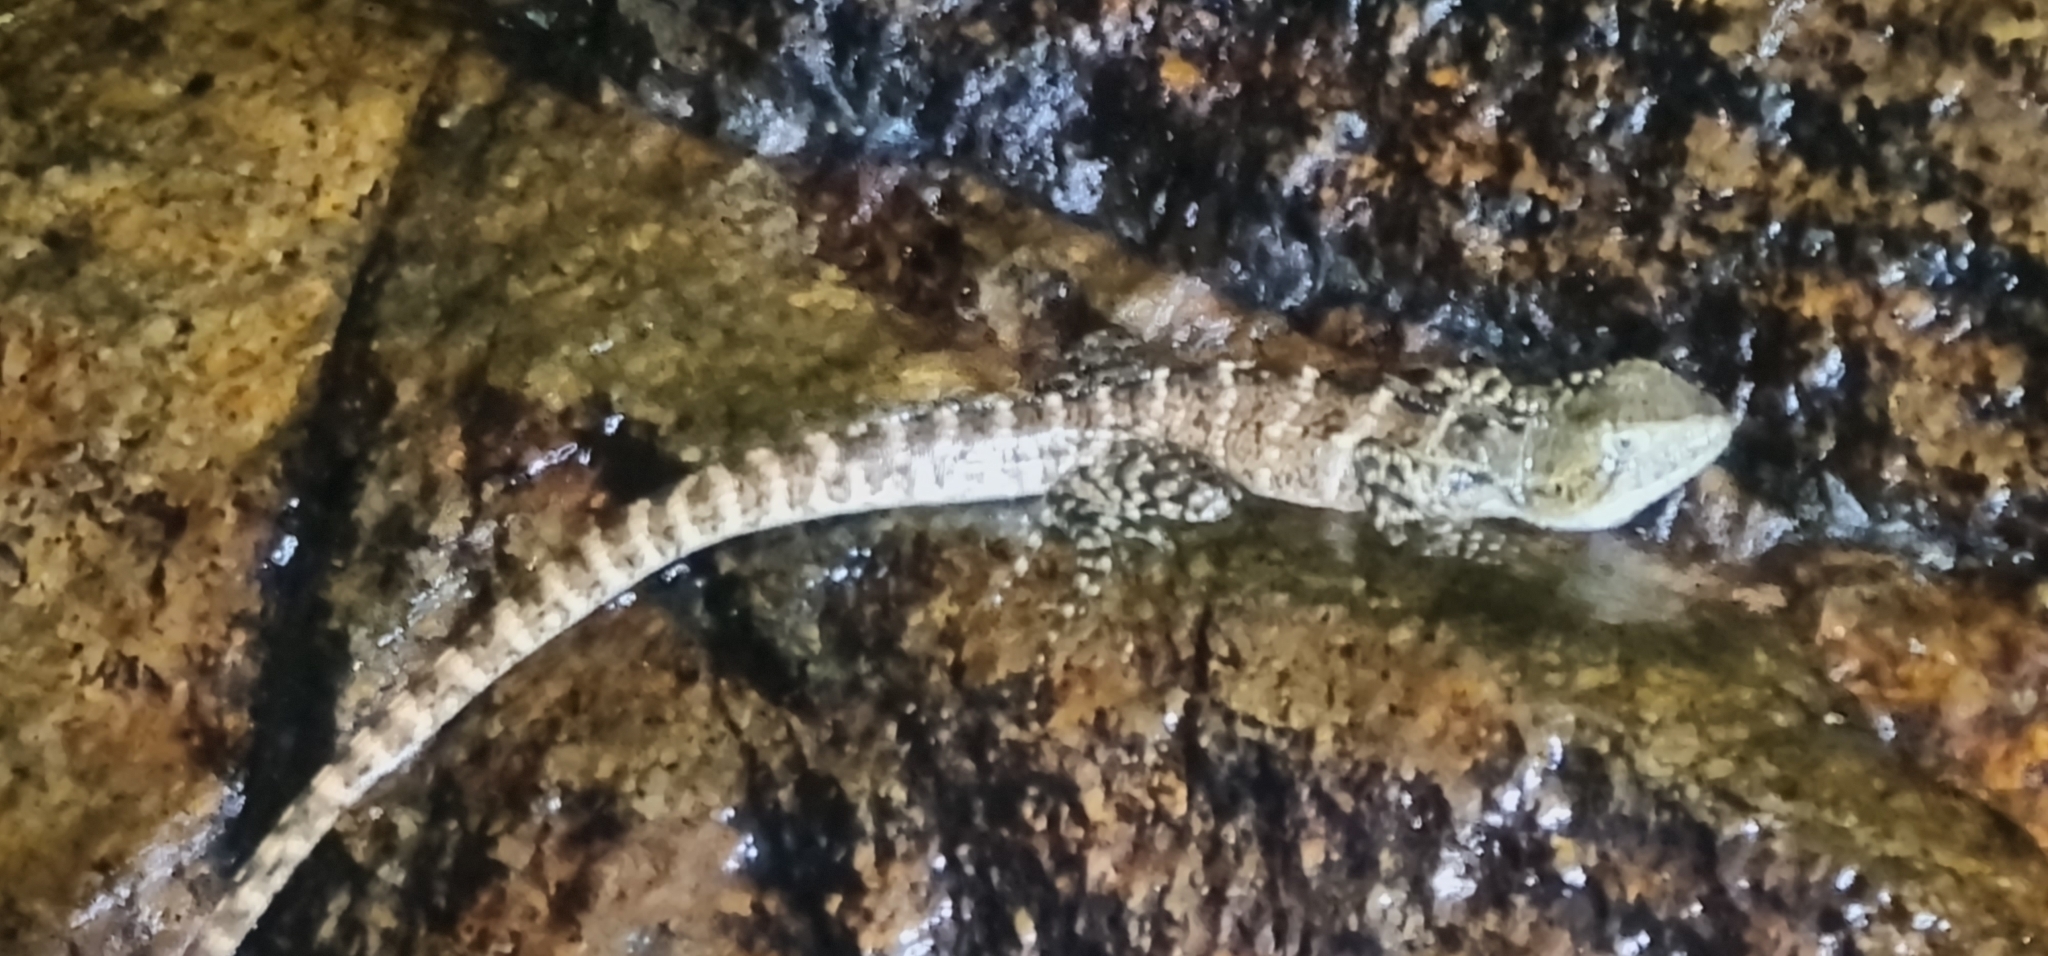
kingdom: Animalia
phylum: Chordata
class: Squamata
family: Agamidae
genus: Intellagama
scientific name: Intellagama lesueurii
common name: Eastern water dragon
